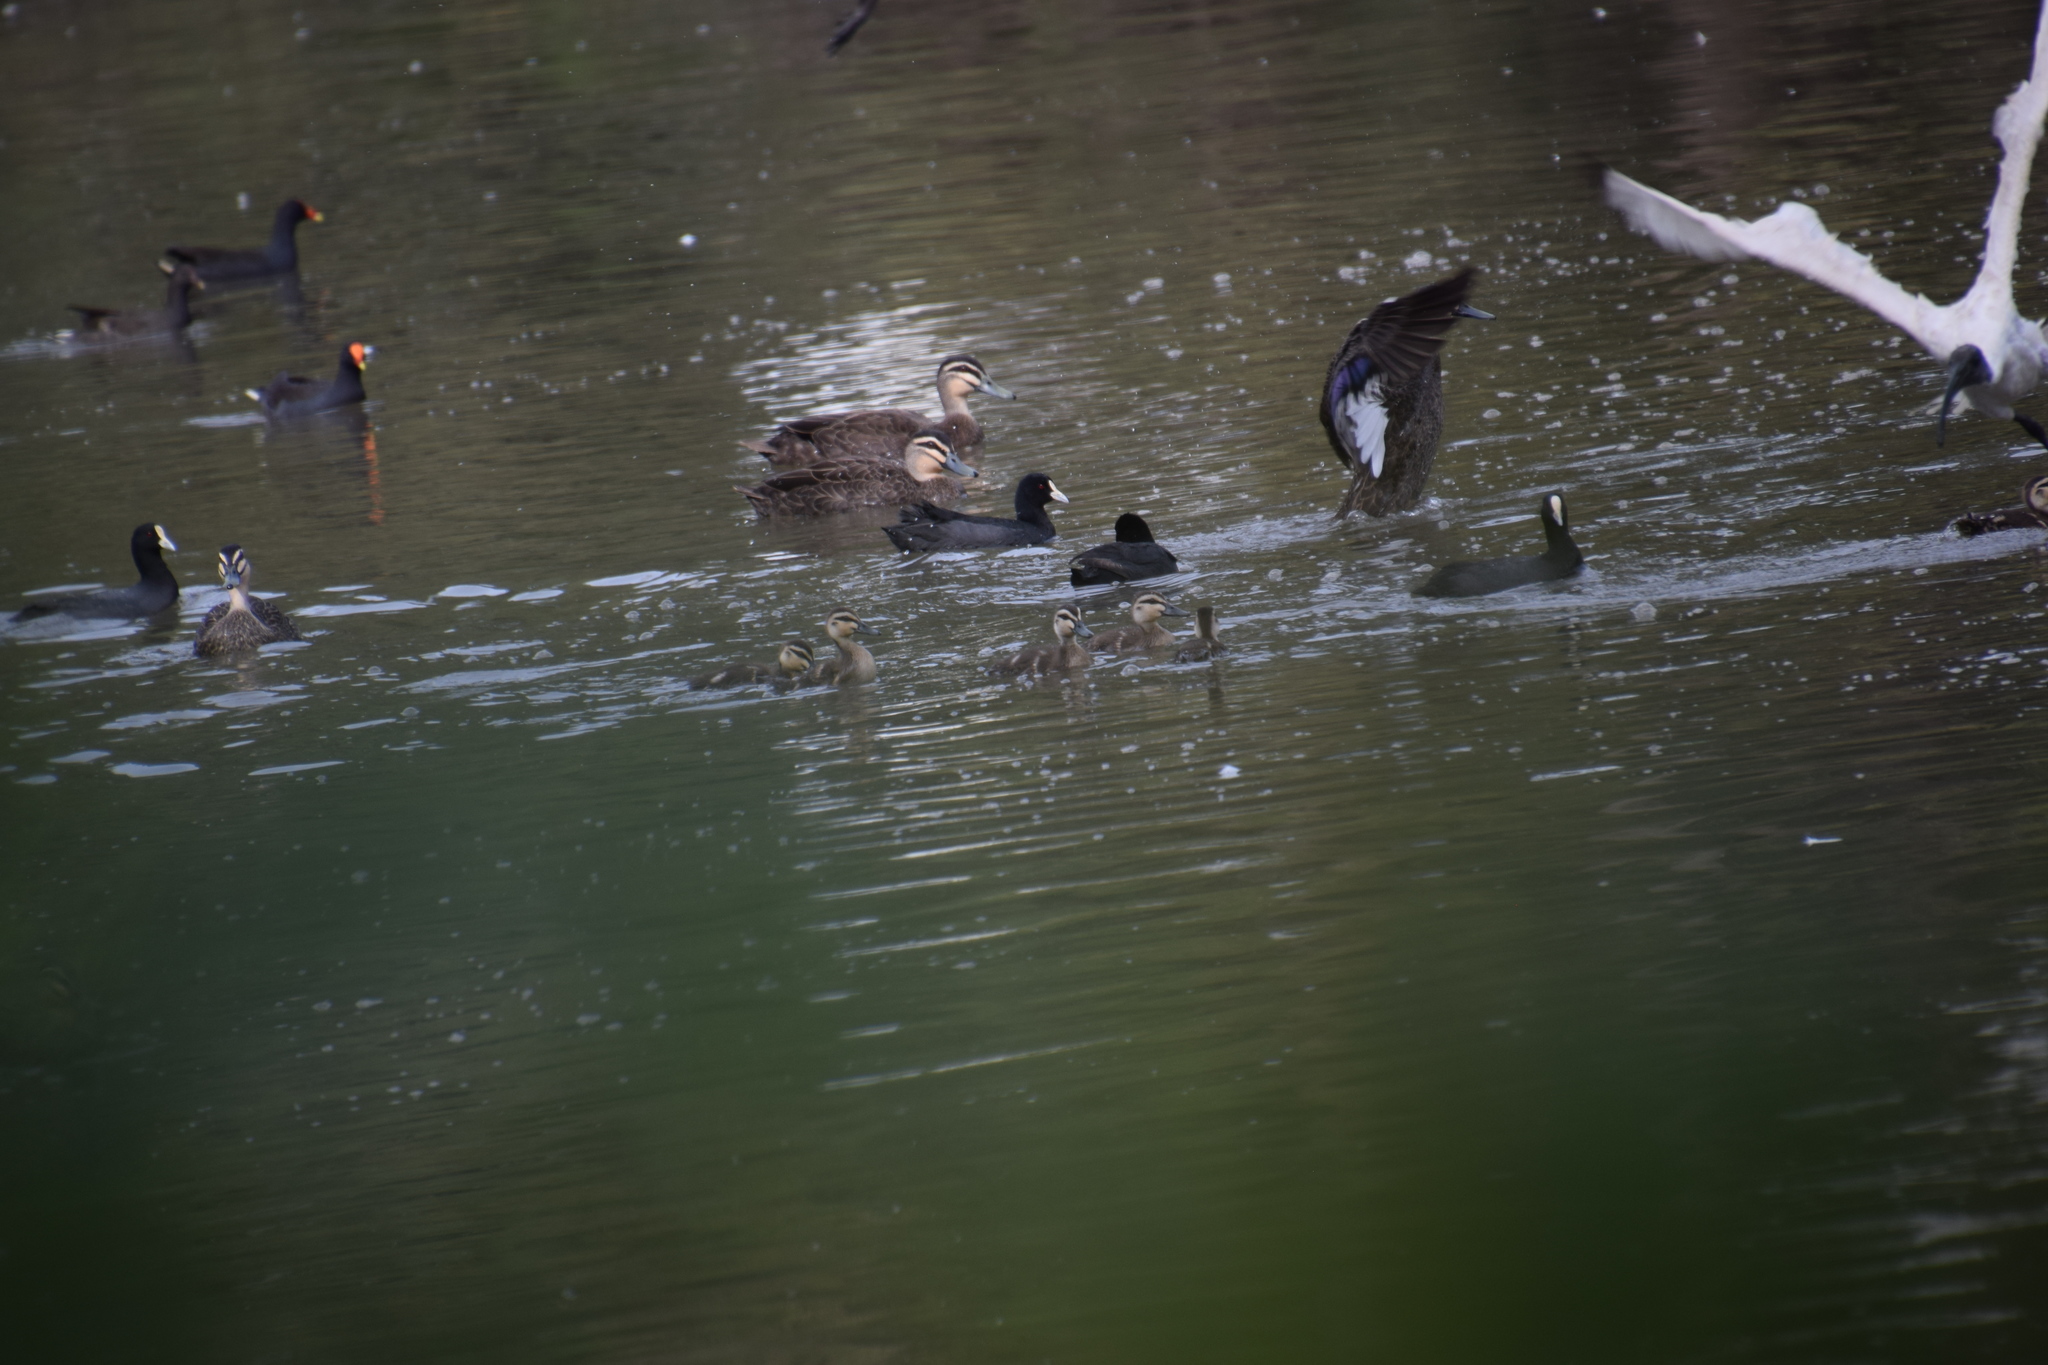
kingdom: Animalia
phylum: Chordata
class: Aves
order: Anseriformes
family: Anatidae
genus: Anas
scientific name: Anas superciliosa
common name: Pacific black duck
